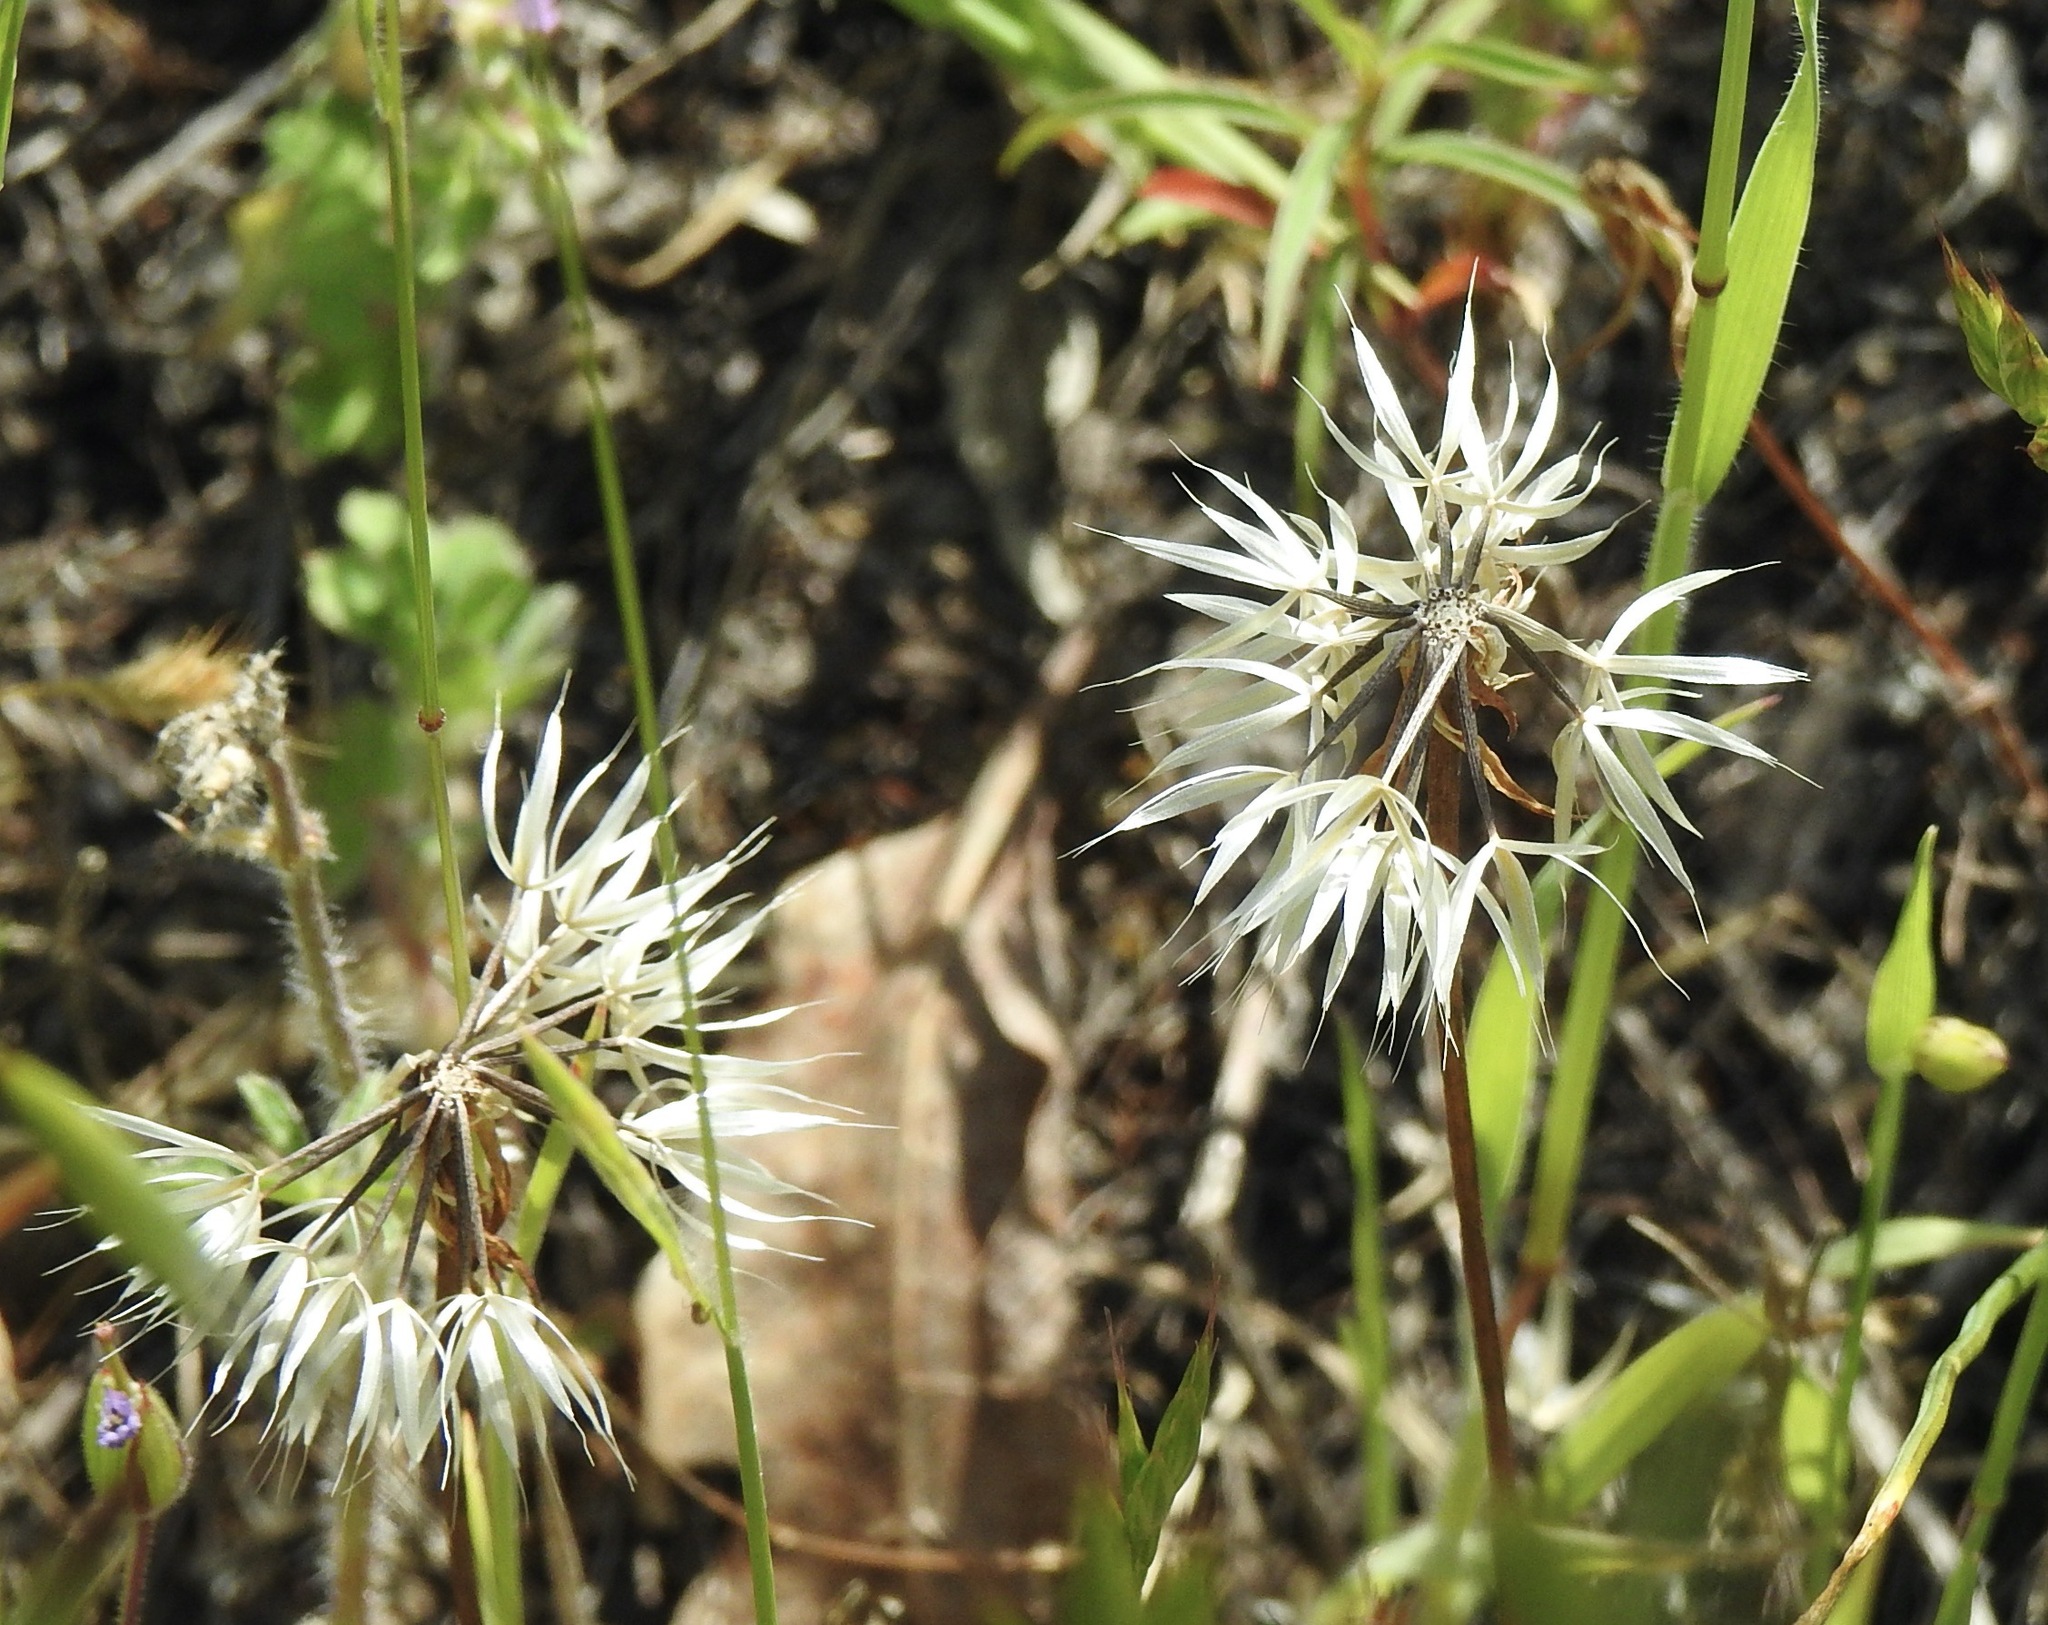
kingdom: Plantae
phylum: Tracheophyta
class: Magnoliopsida
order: Asterales
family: Asteraceae
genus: Microseris
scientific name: Microseris lindleyi
